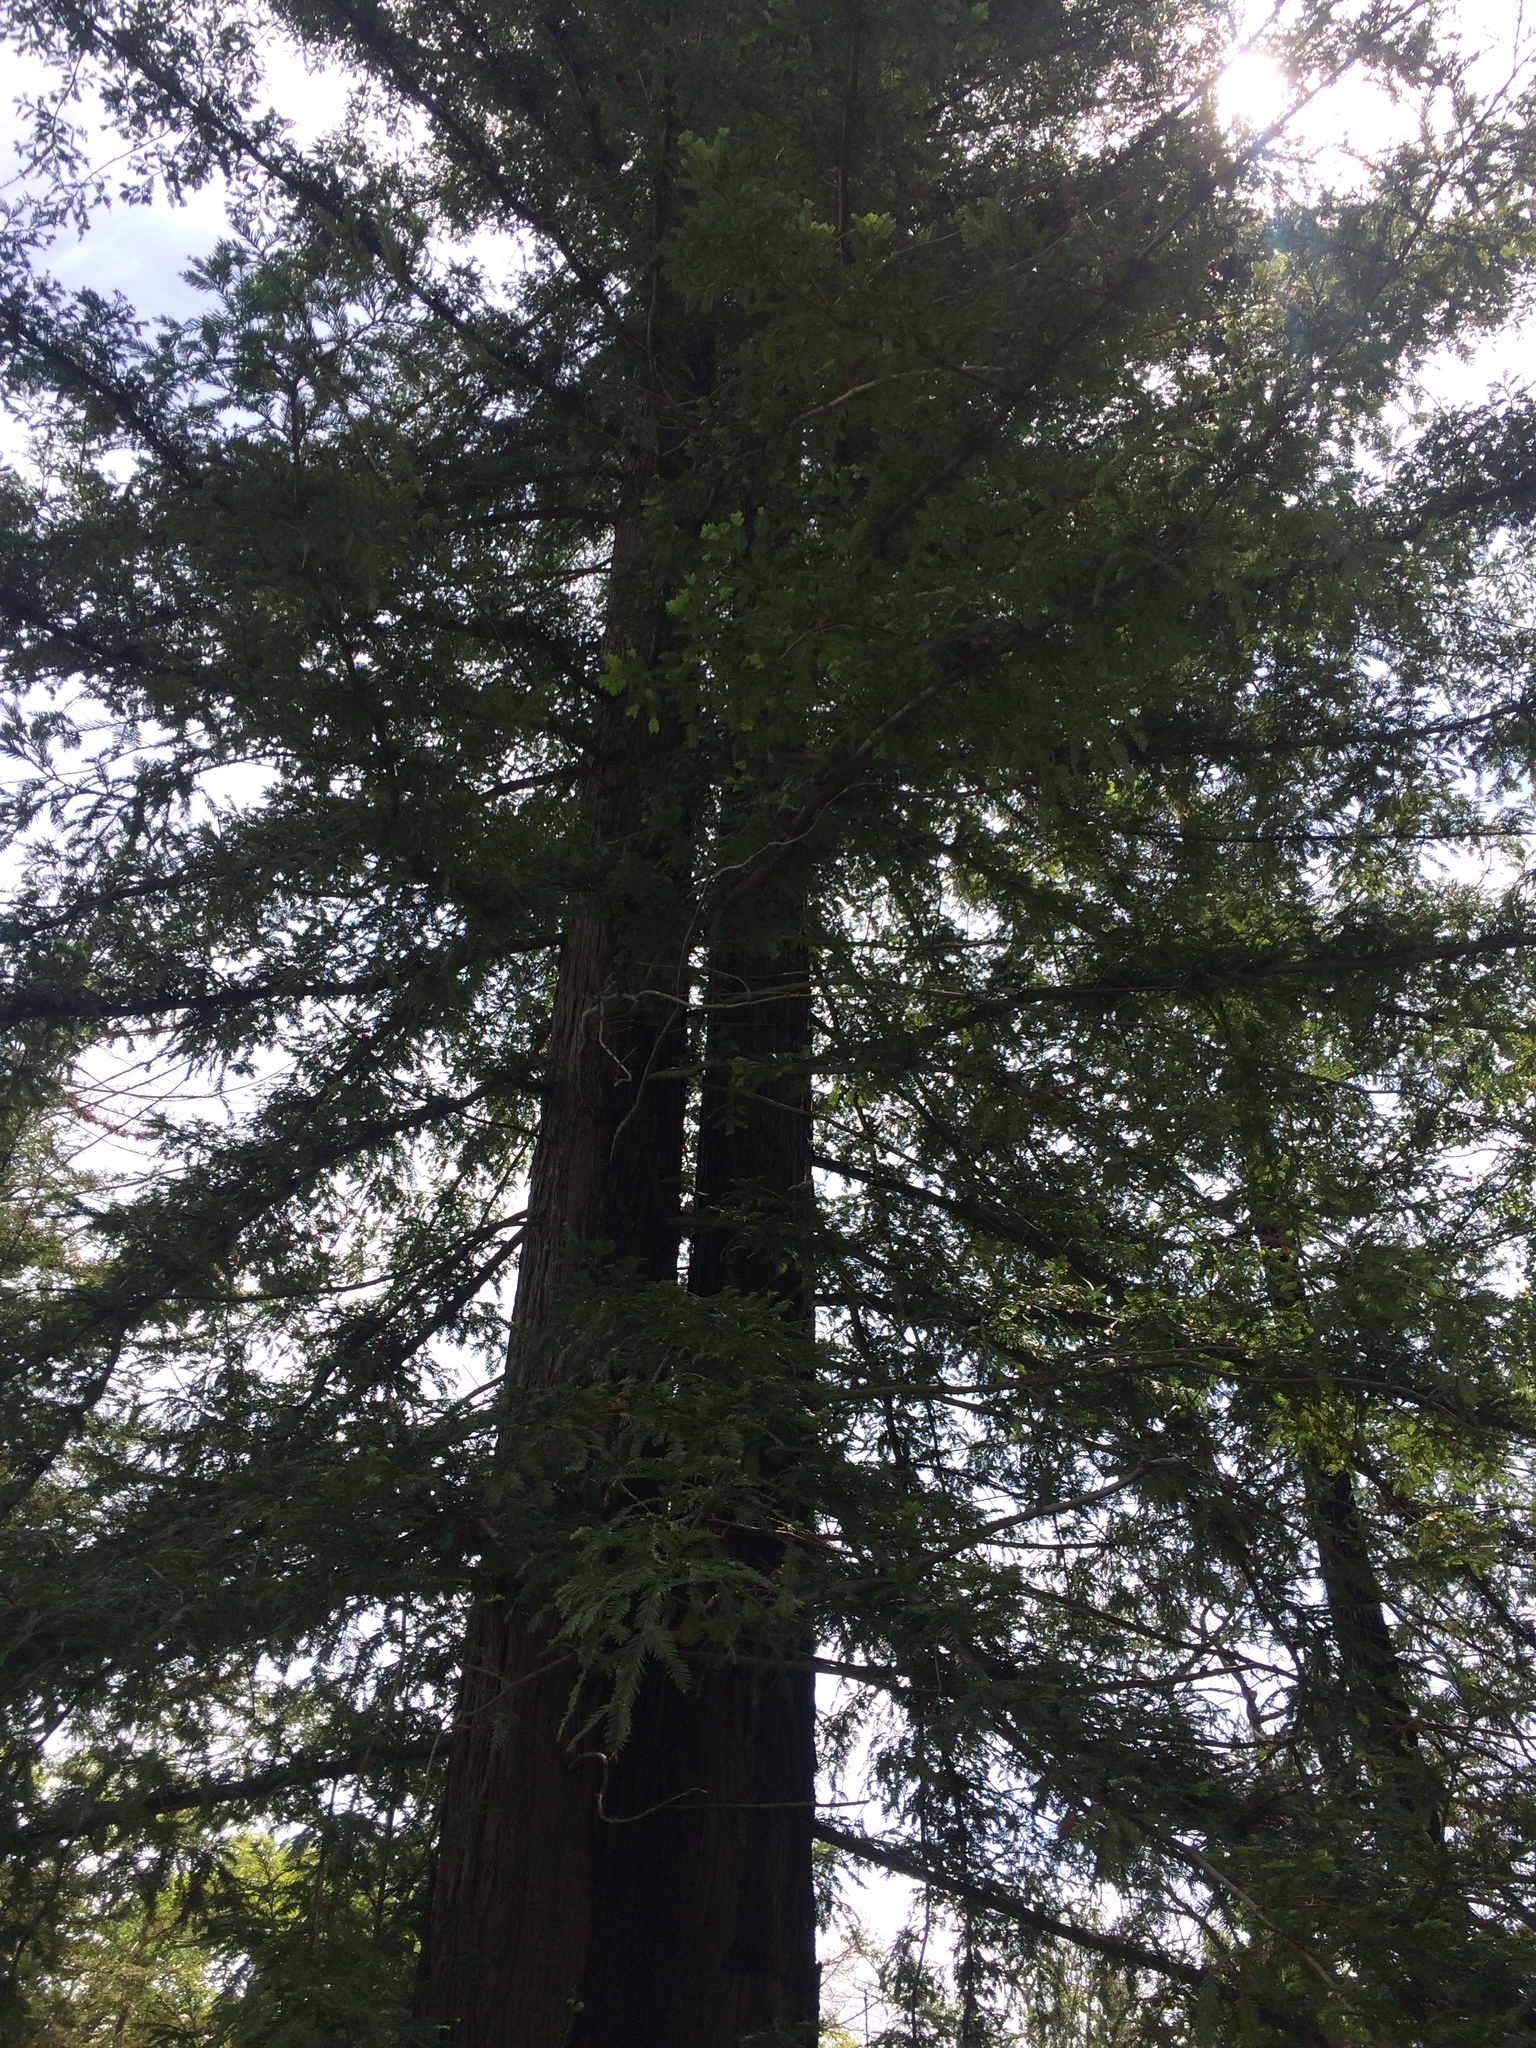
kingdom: Plantae
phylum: Tracheophyta
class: Pinopsida
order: Pinales
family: Cupressaceae
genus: Sequoia
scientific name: Sequoia sempervirens
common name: Coast redwood
